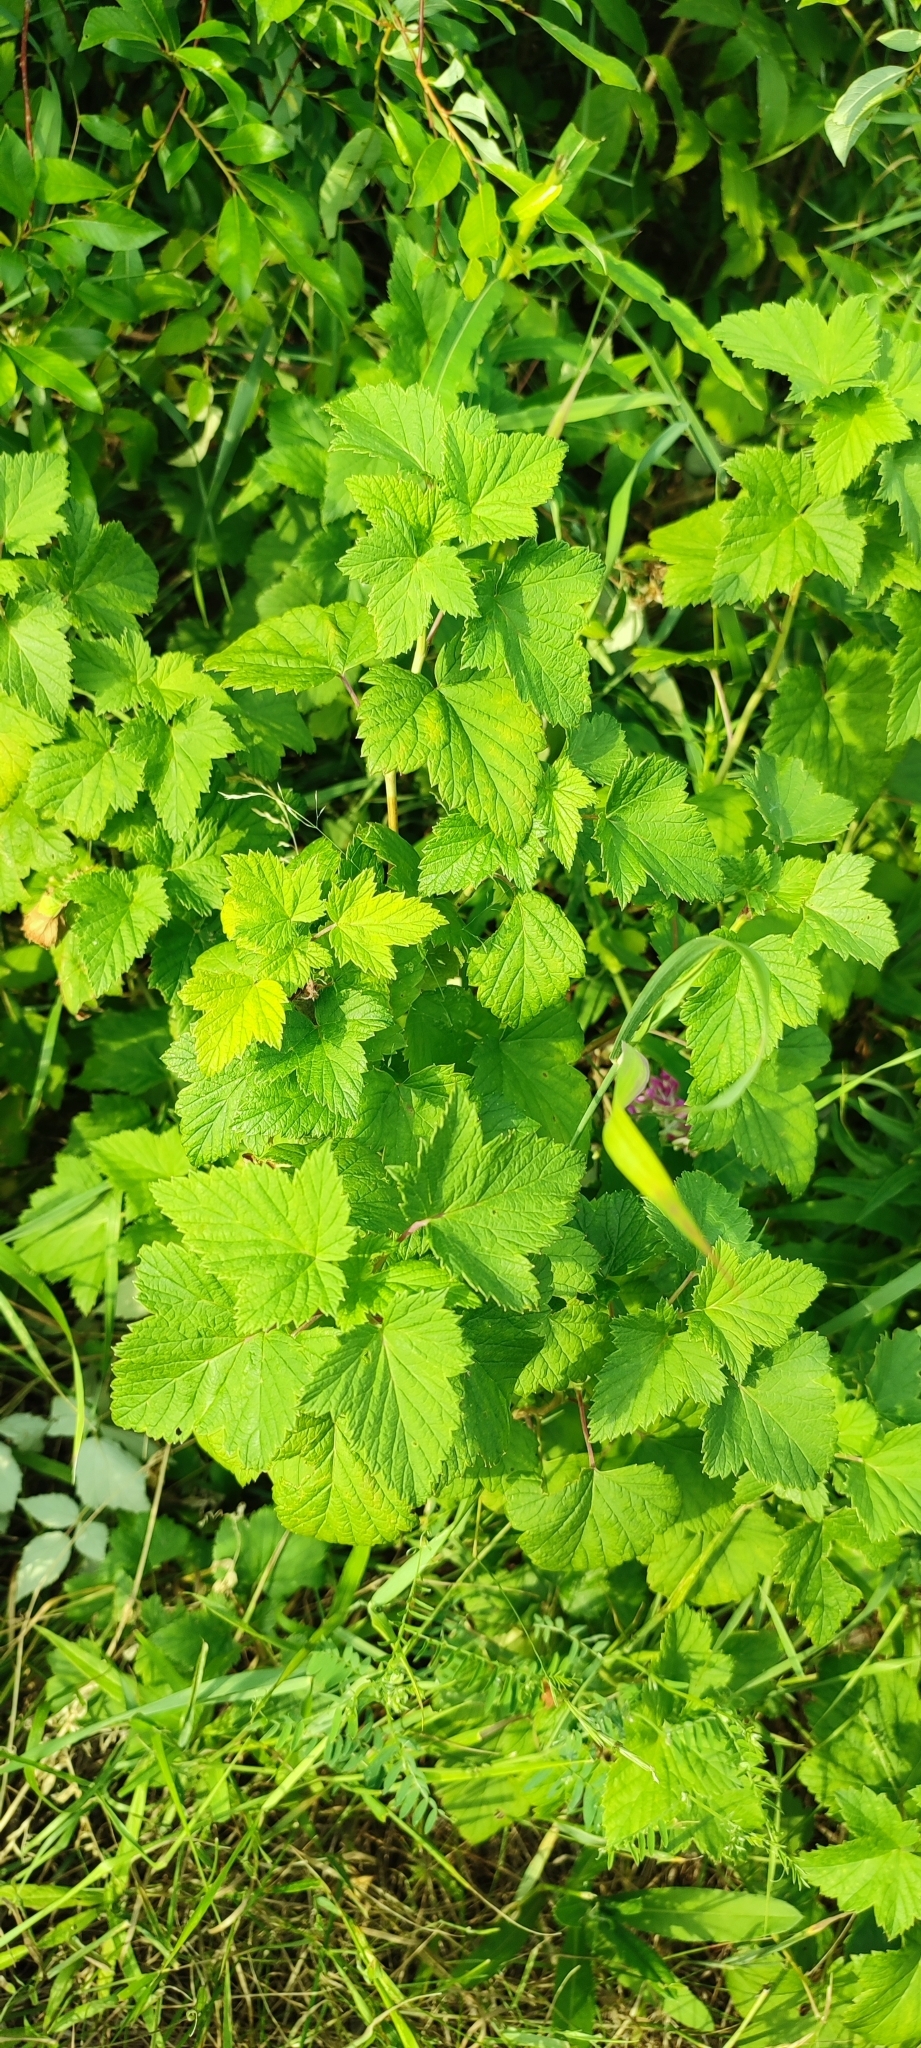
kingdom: Plantae
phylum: Tracheophyta
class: Magnoliopsida
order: Saxifragales
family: Grossulariaceae
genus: Ribes
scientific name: Ribes nigrum
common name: Black currant
